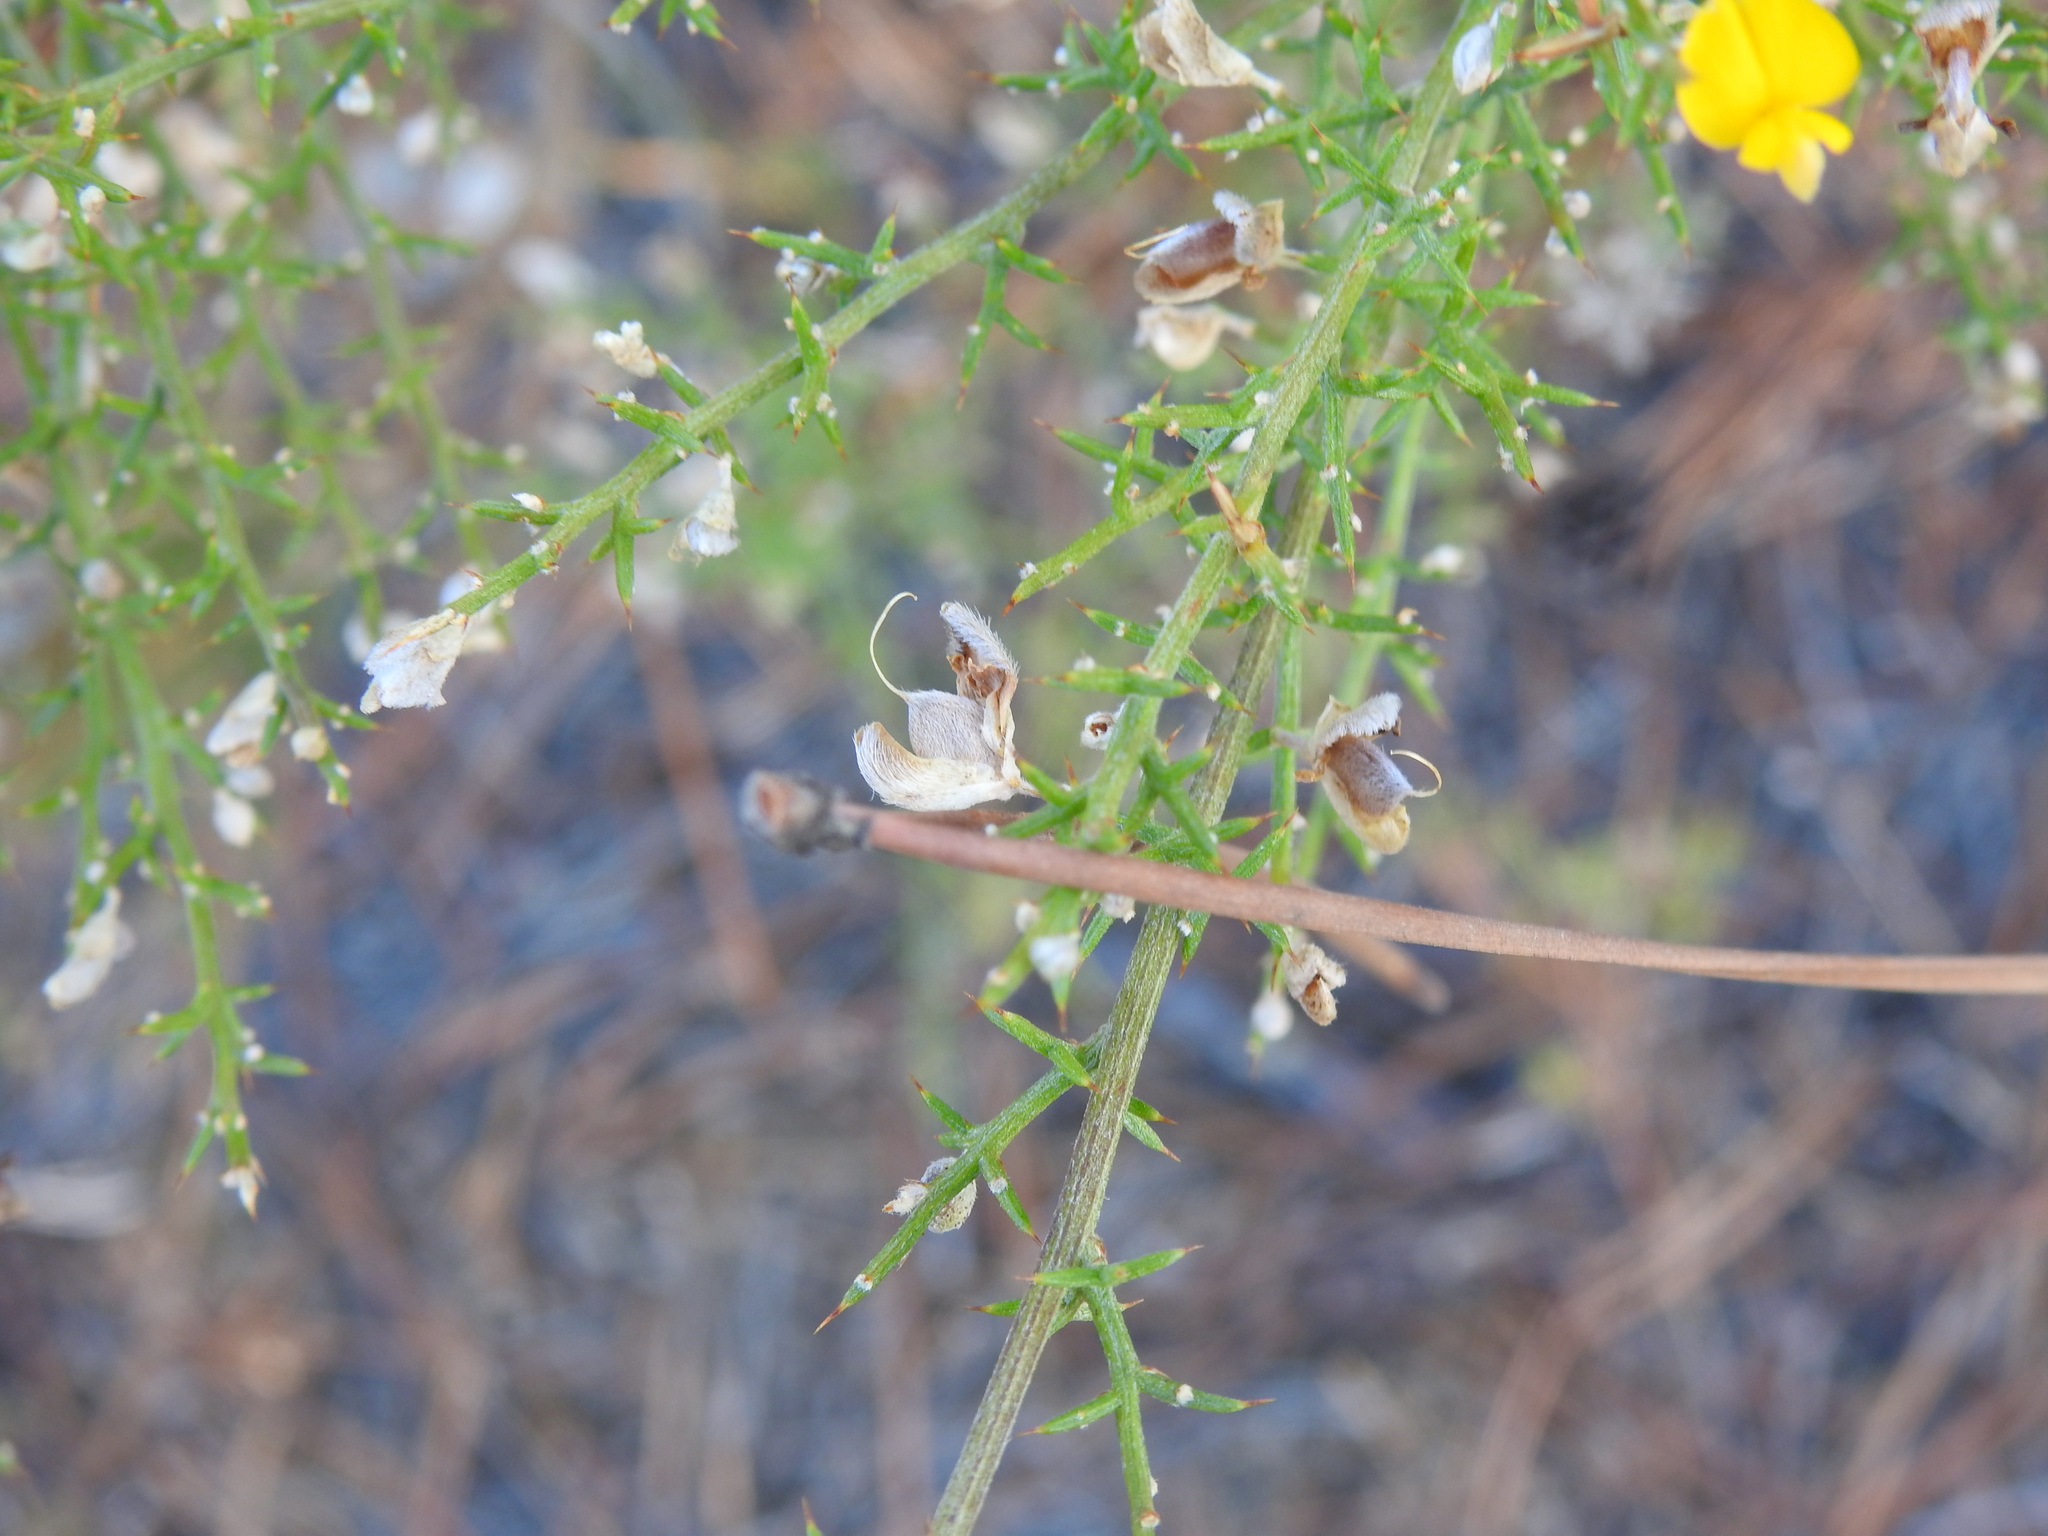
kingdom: Plantae
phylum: Tracheophyta
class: Magnoliopsida
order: Fabales
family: Fabaceae
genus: Stauracanthus
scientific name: Stauracanthus boivinii
